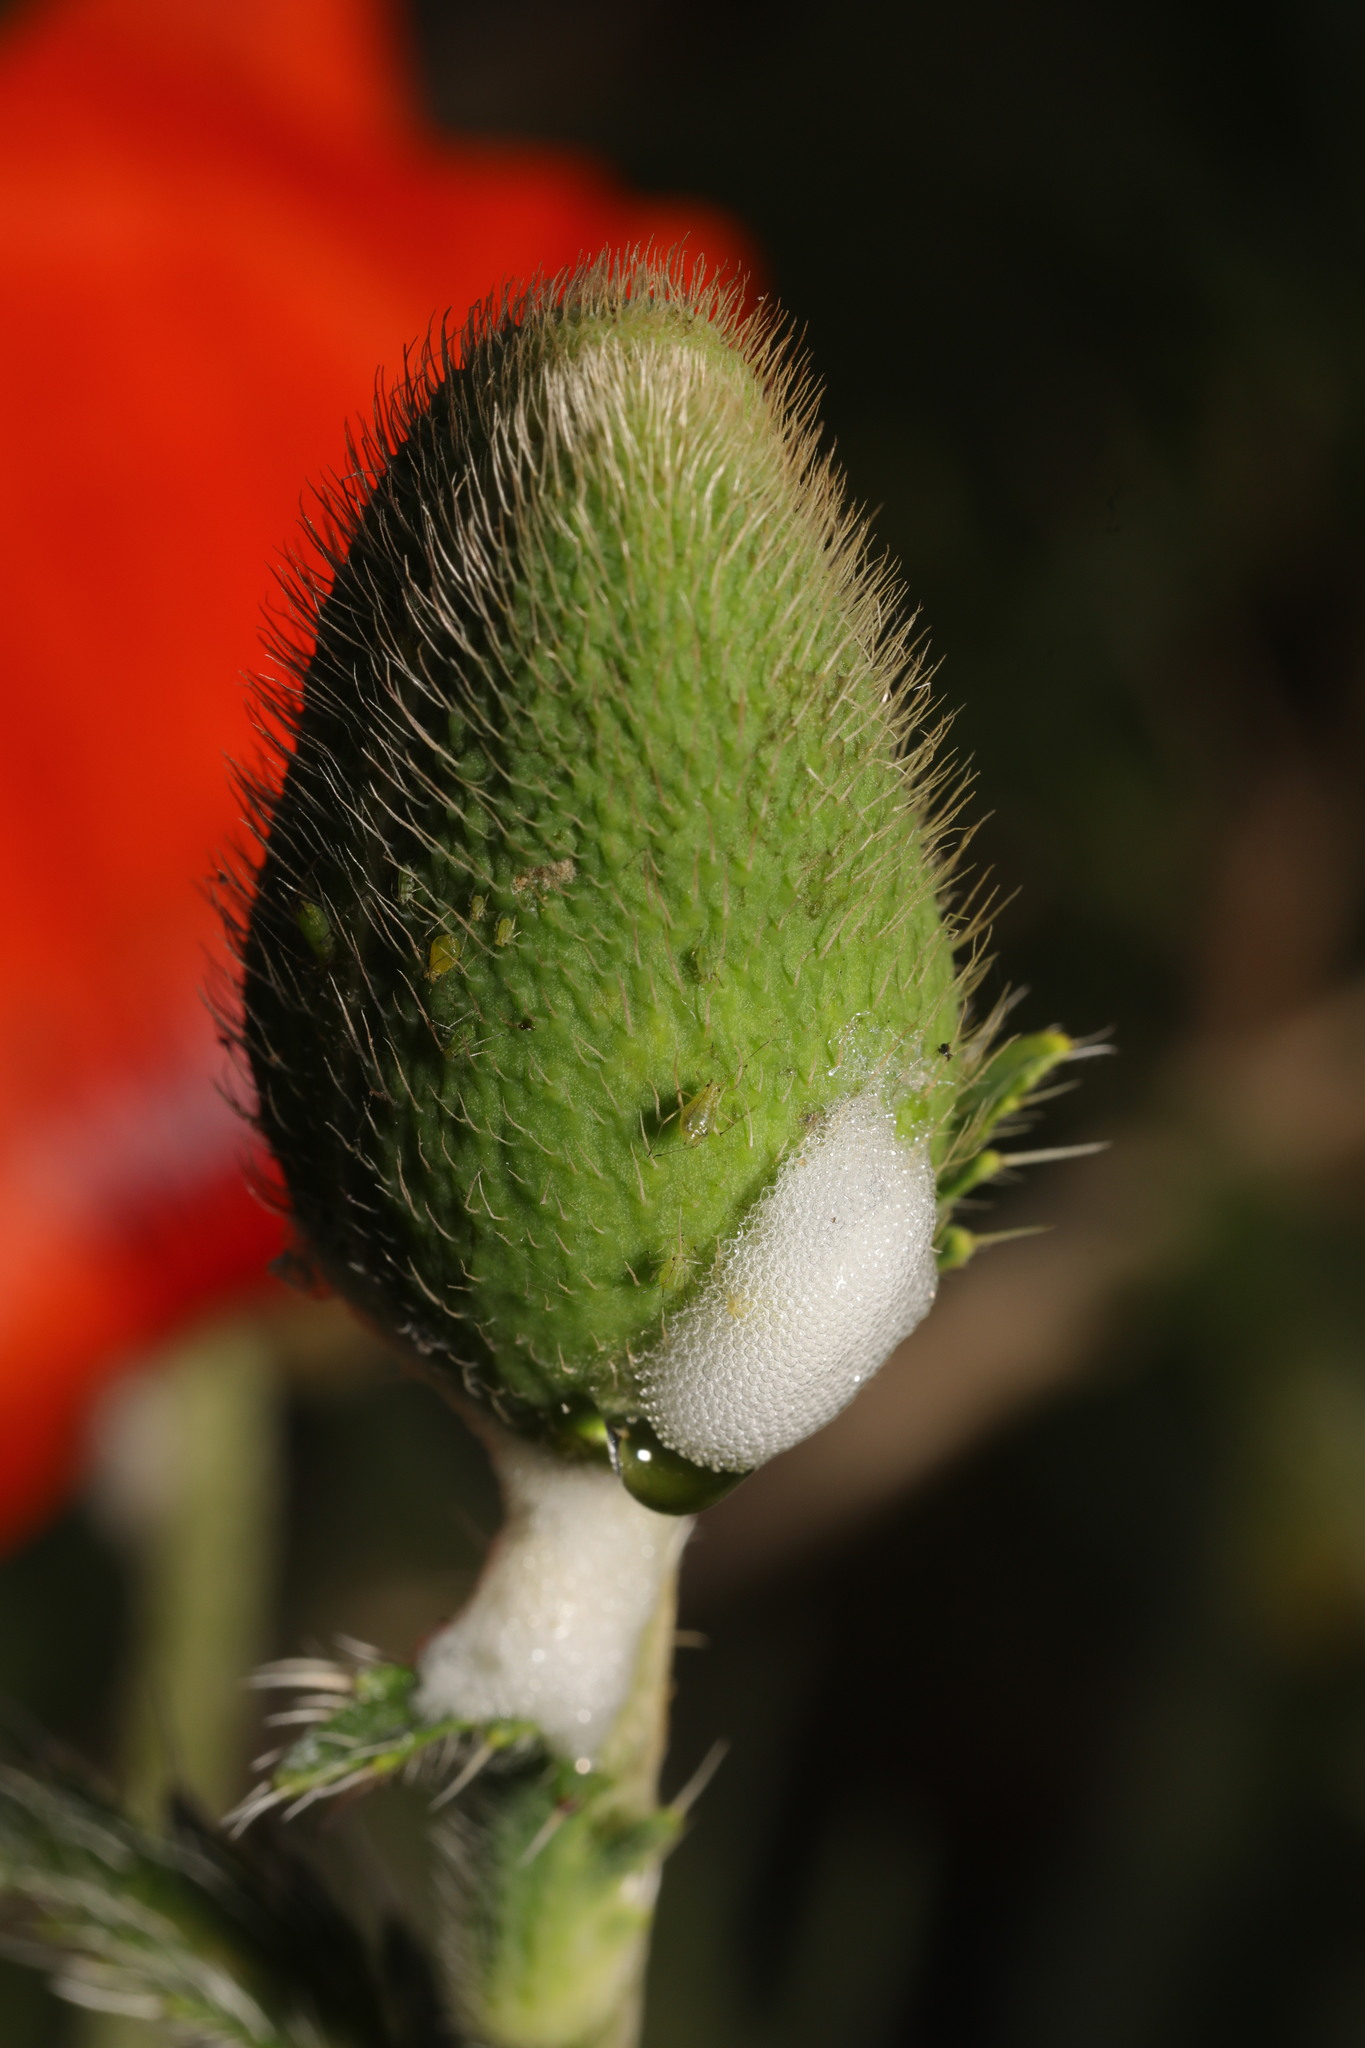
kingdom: Animalia
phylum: Arthropoda
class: Insecta
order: Hemiptera
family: Aphrophoridae
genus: Philaenus
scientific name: Philaenus spumarius
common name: Meadow spittlebug
